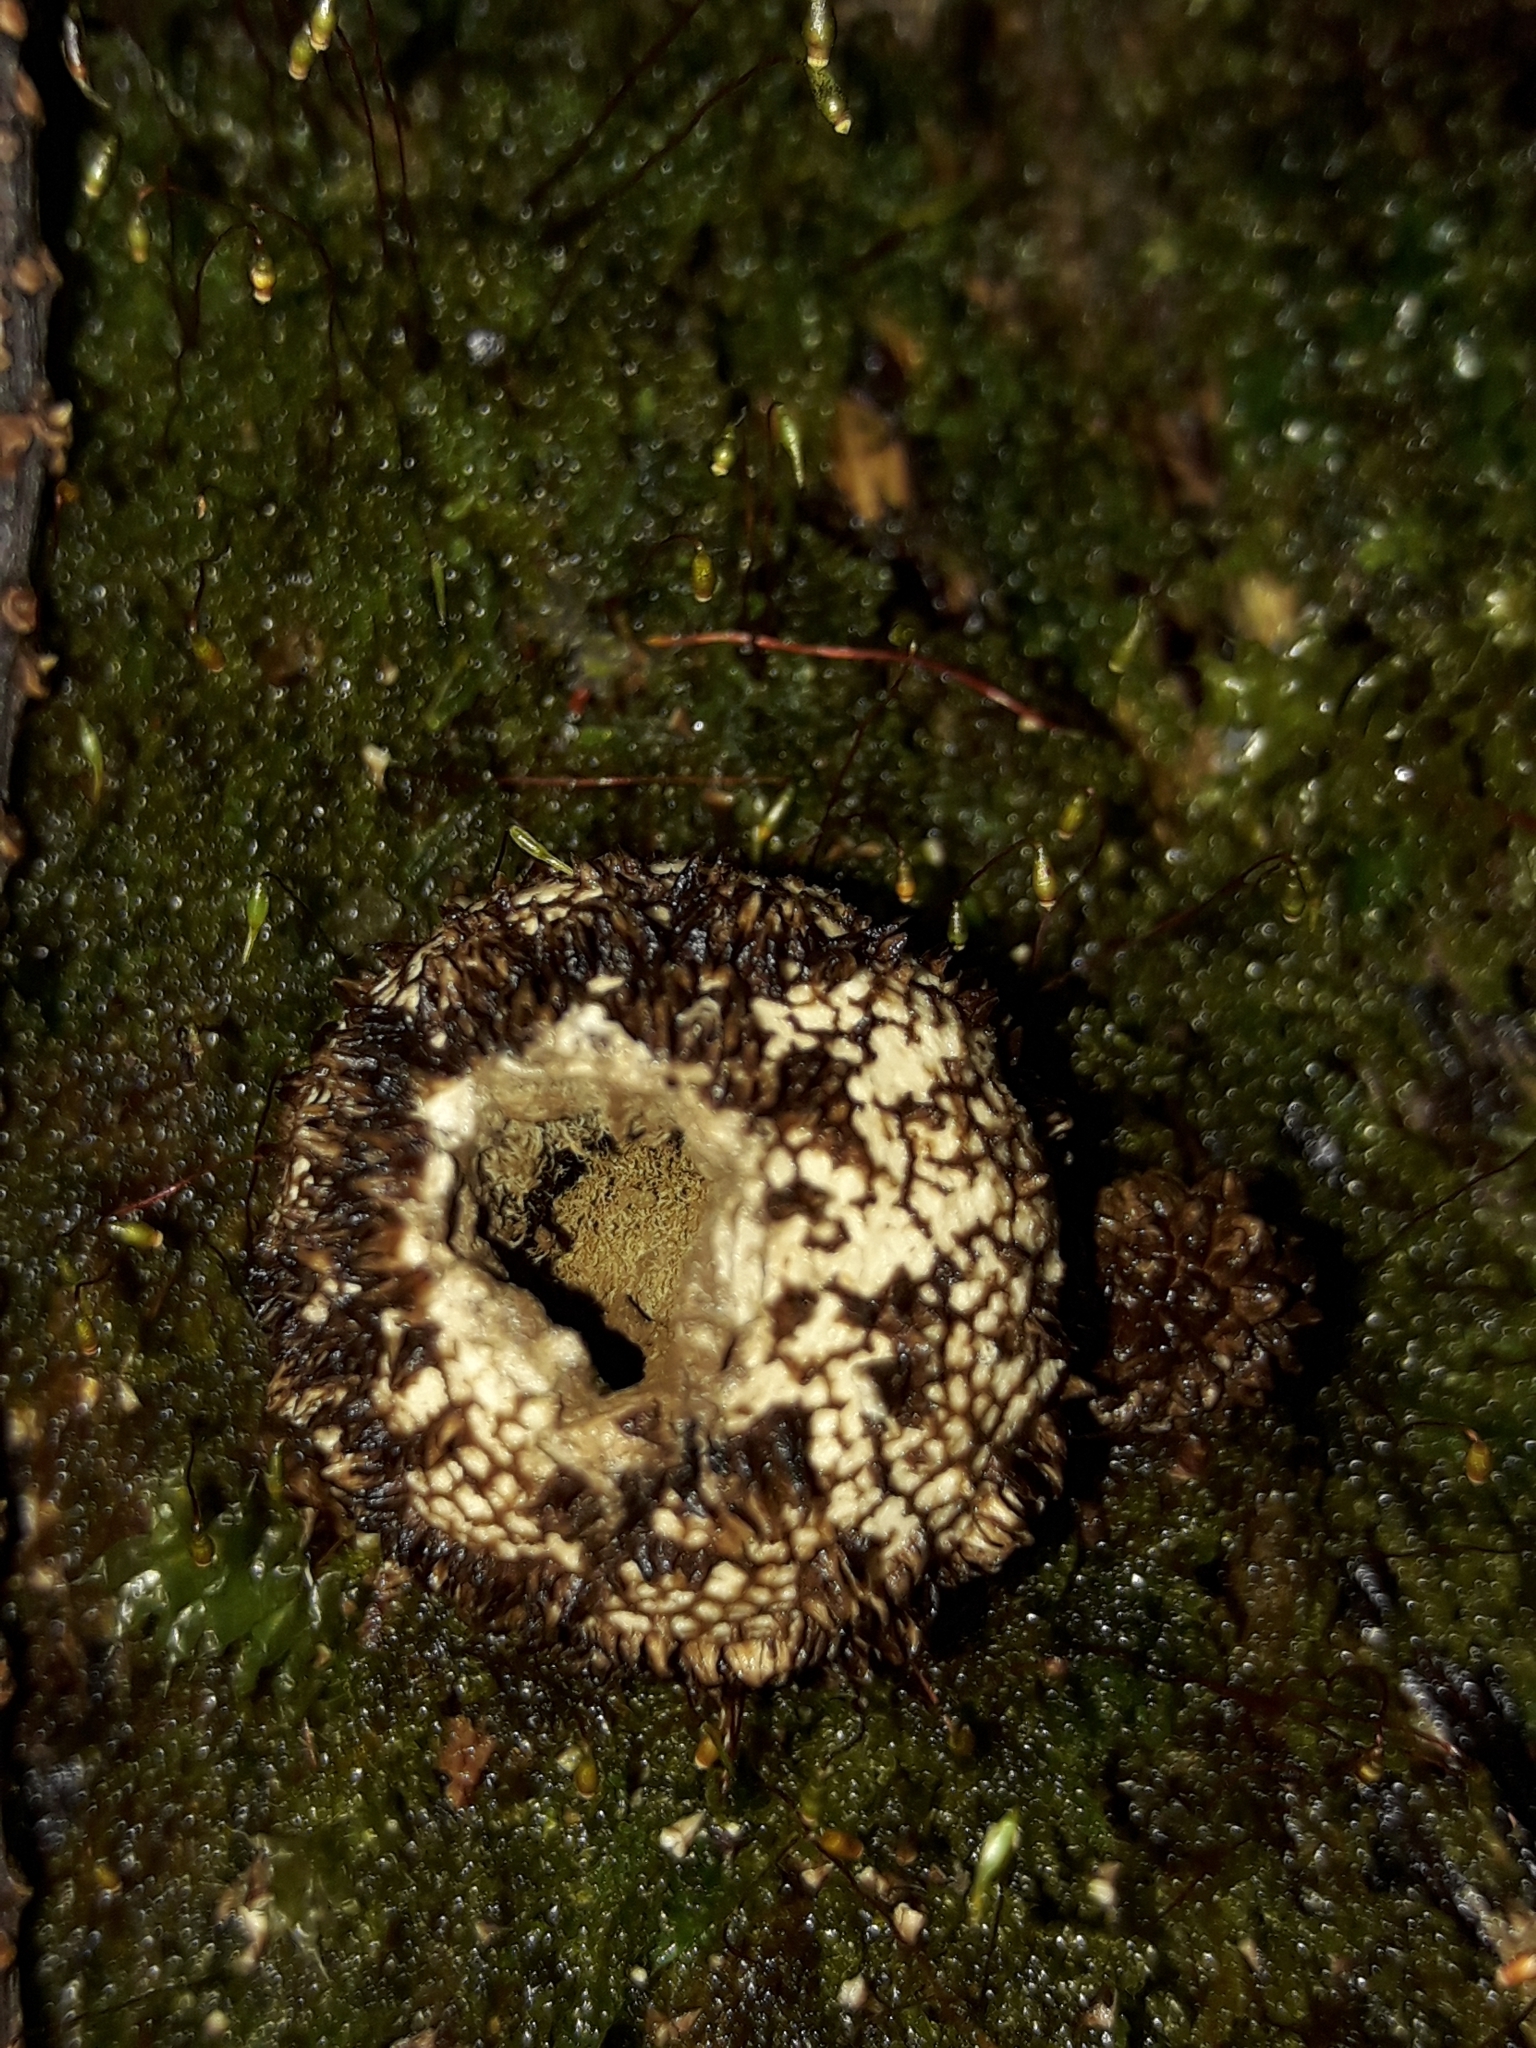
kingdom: Fungi
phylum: Basidiomycota
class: Agaricomycetes
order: Agaricales
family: Lycoperdaceae
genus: Lycoperdon
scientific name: Lycoperdon compactum
